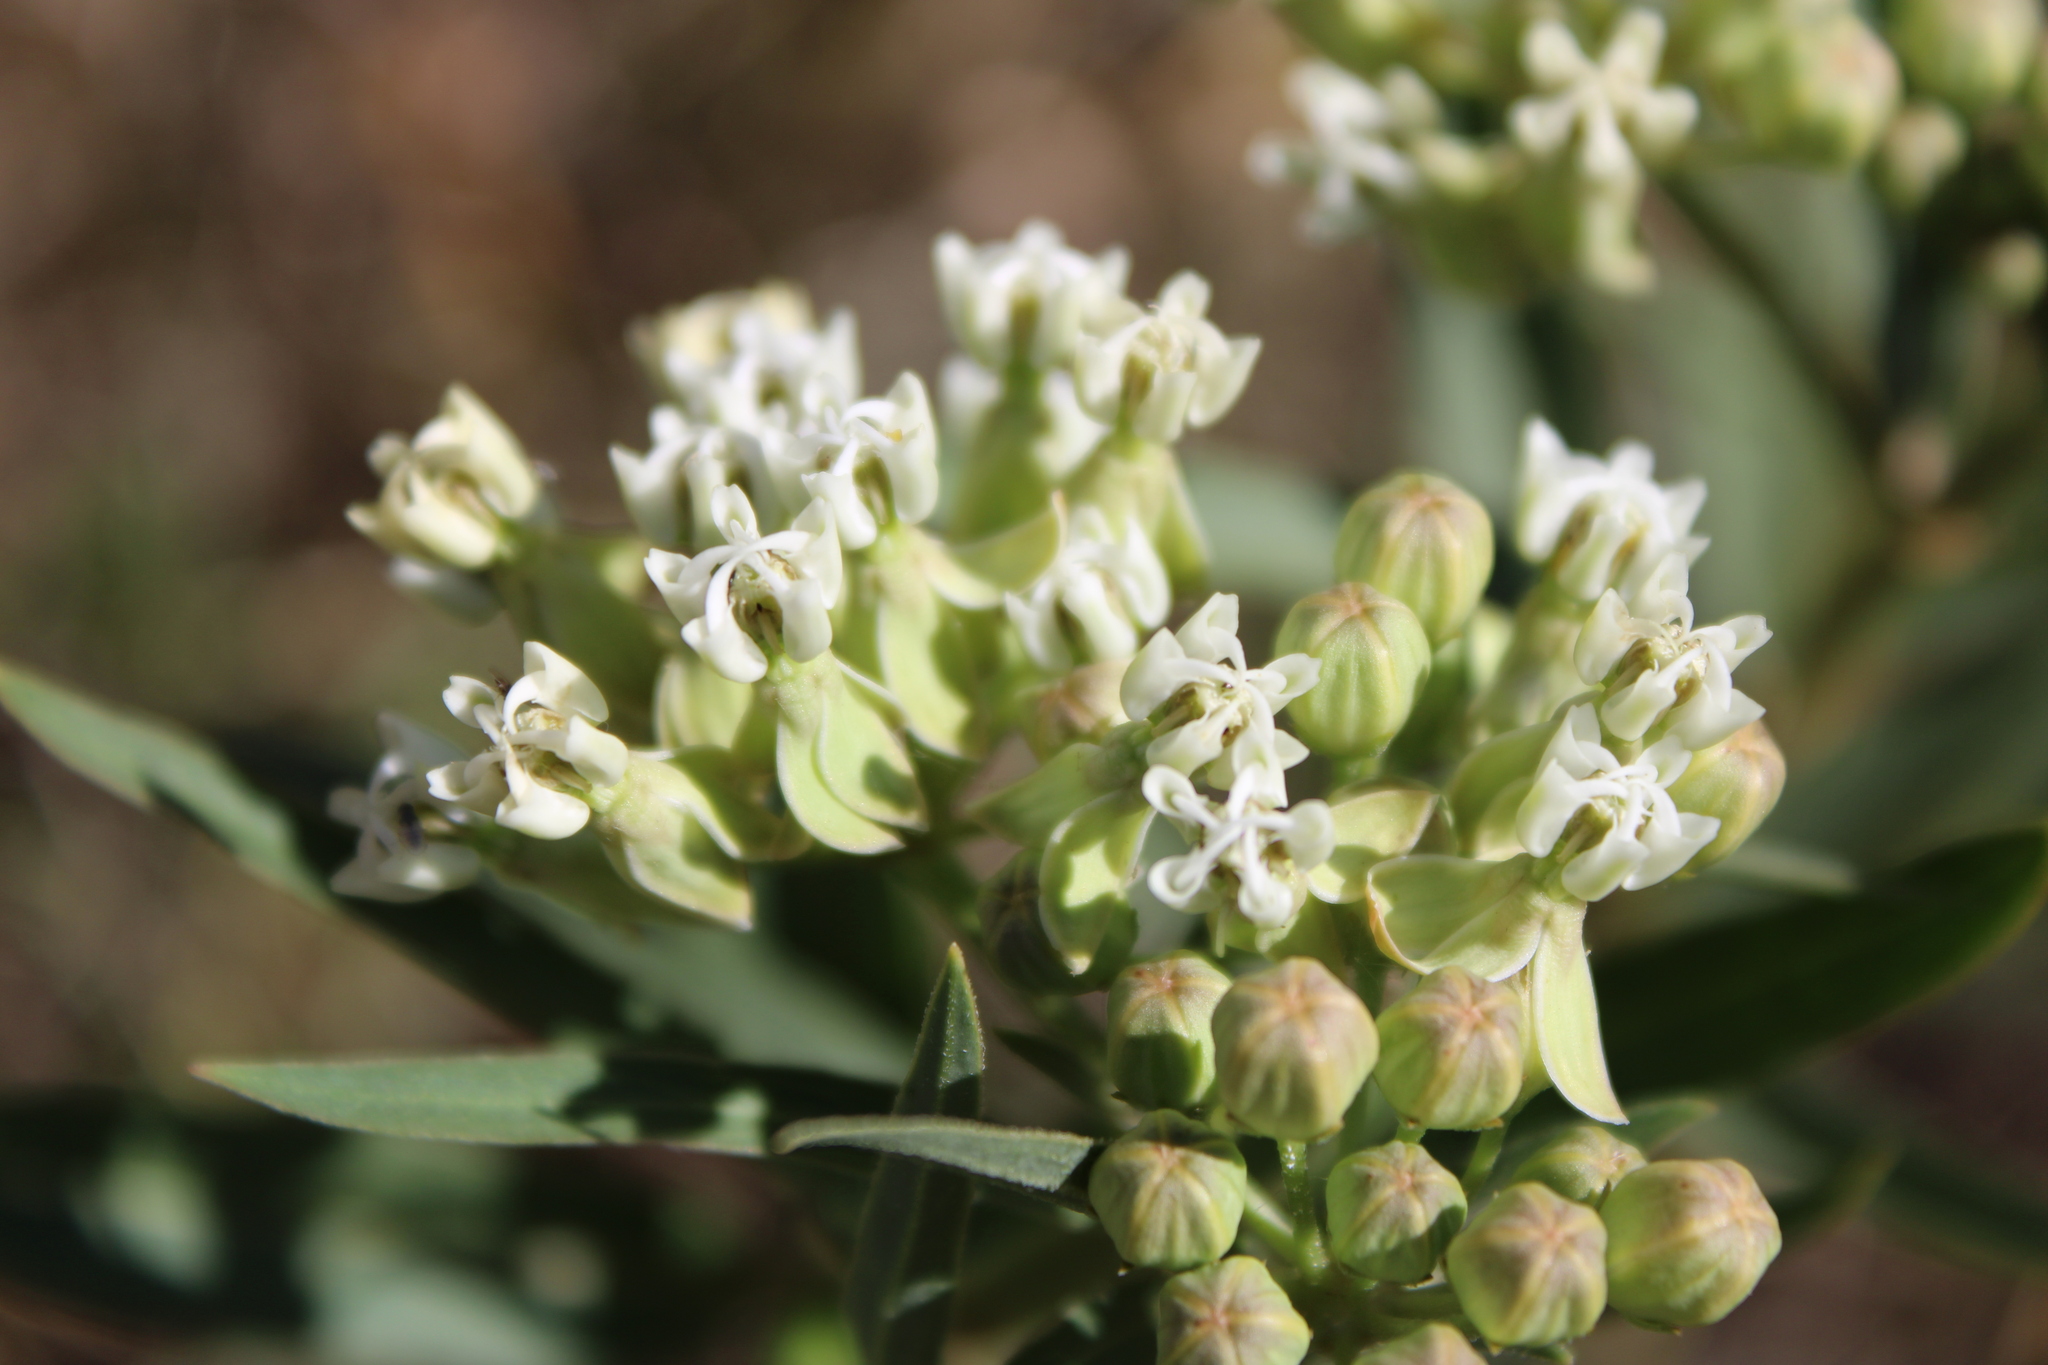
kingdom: Plantae
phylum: Tracheophyta
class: Magnoliopsida
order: Gentianales
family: Apocynaceae
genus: Asclepias
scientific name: Asclepias mellodora
